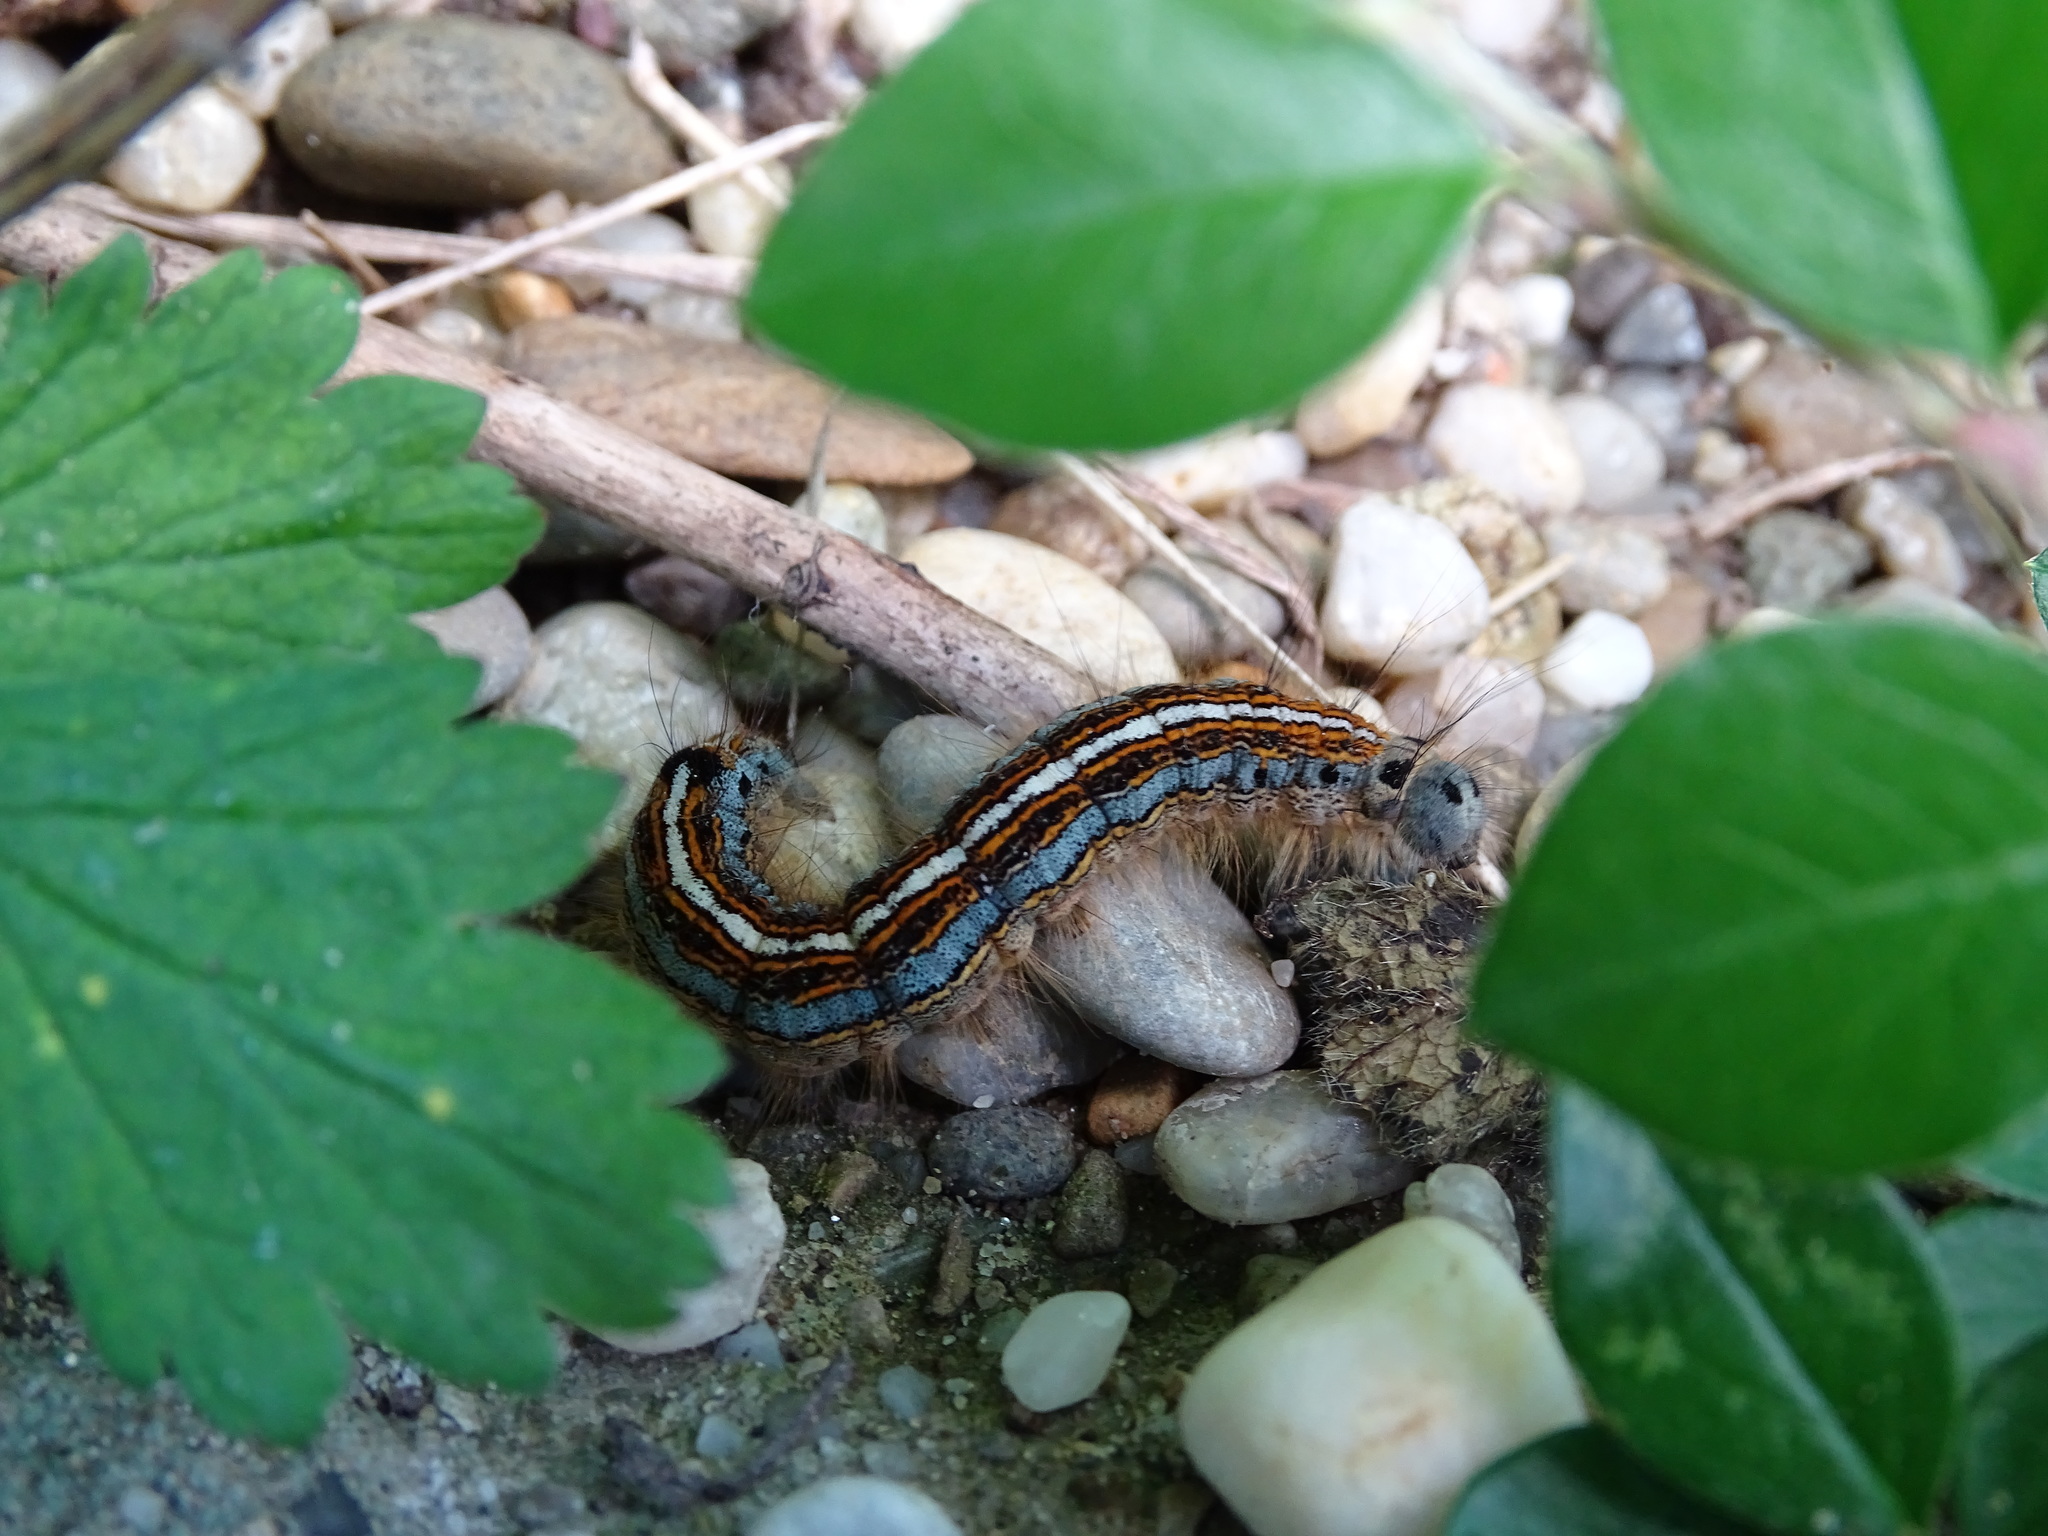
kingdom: Animalia
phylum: Arthropoda
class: Insecta
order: Lepidoptera
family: Lasiocampidae
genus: Malacosoma
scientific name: Malacosoma neustria
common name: The lackey
